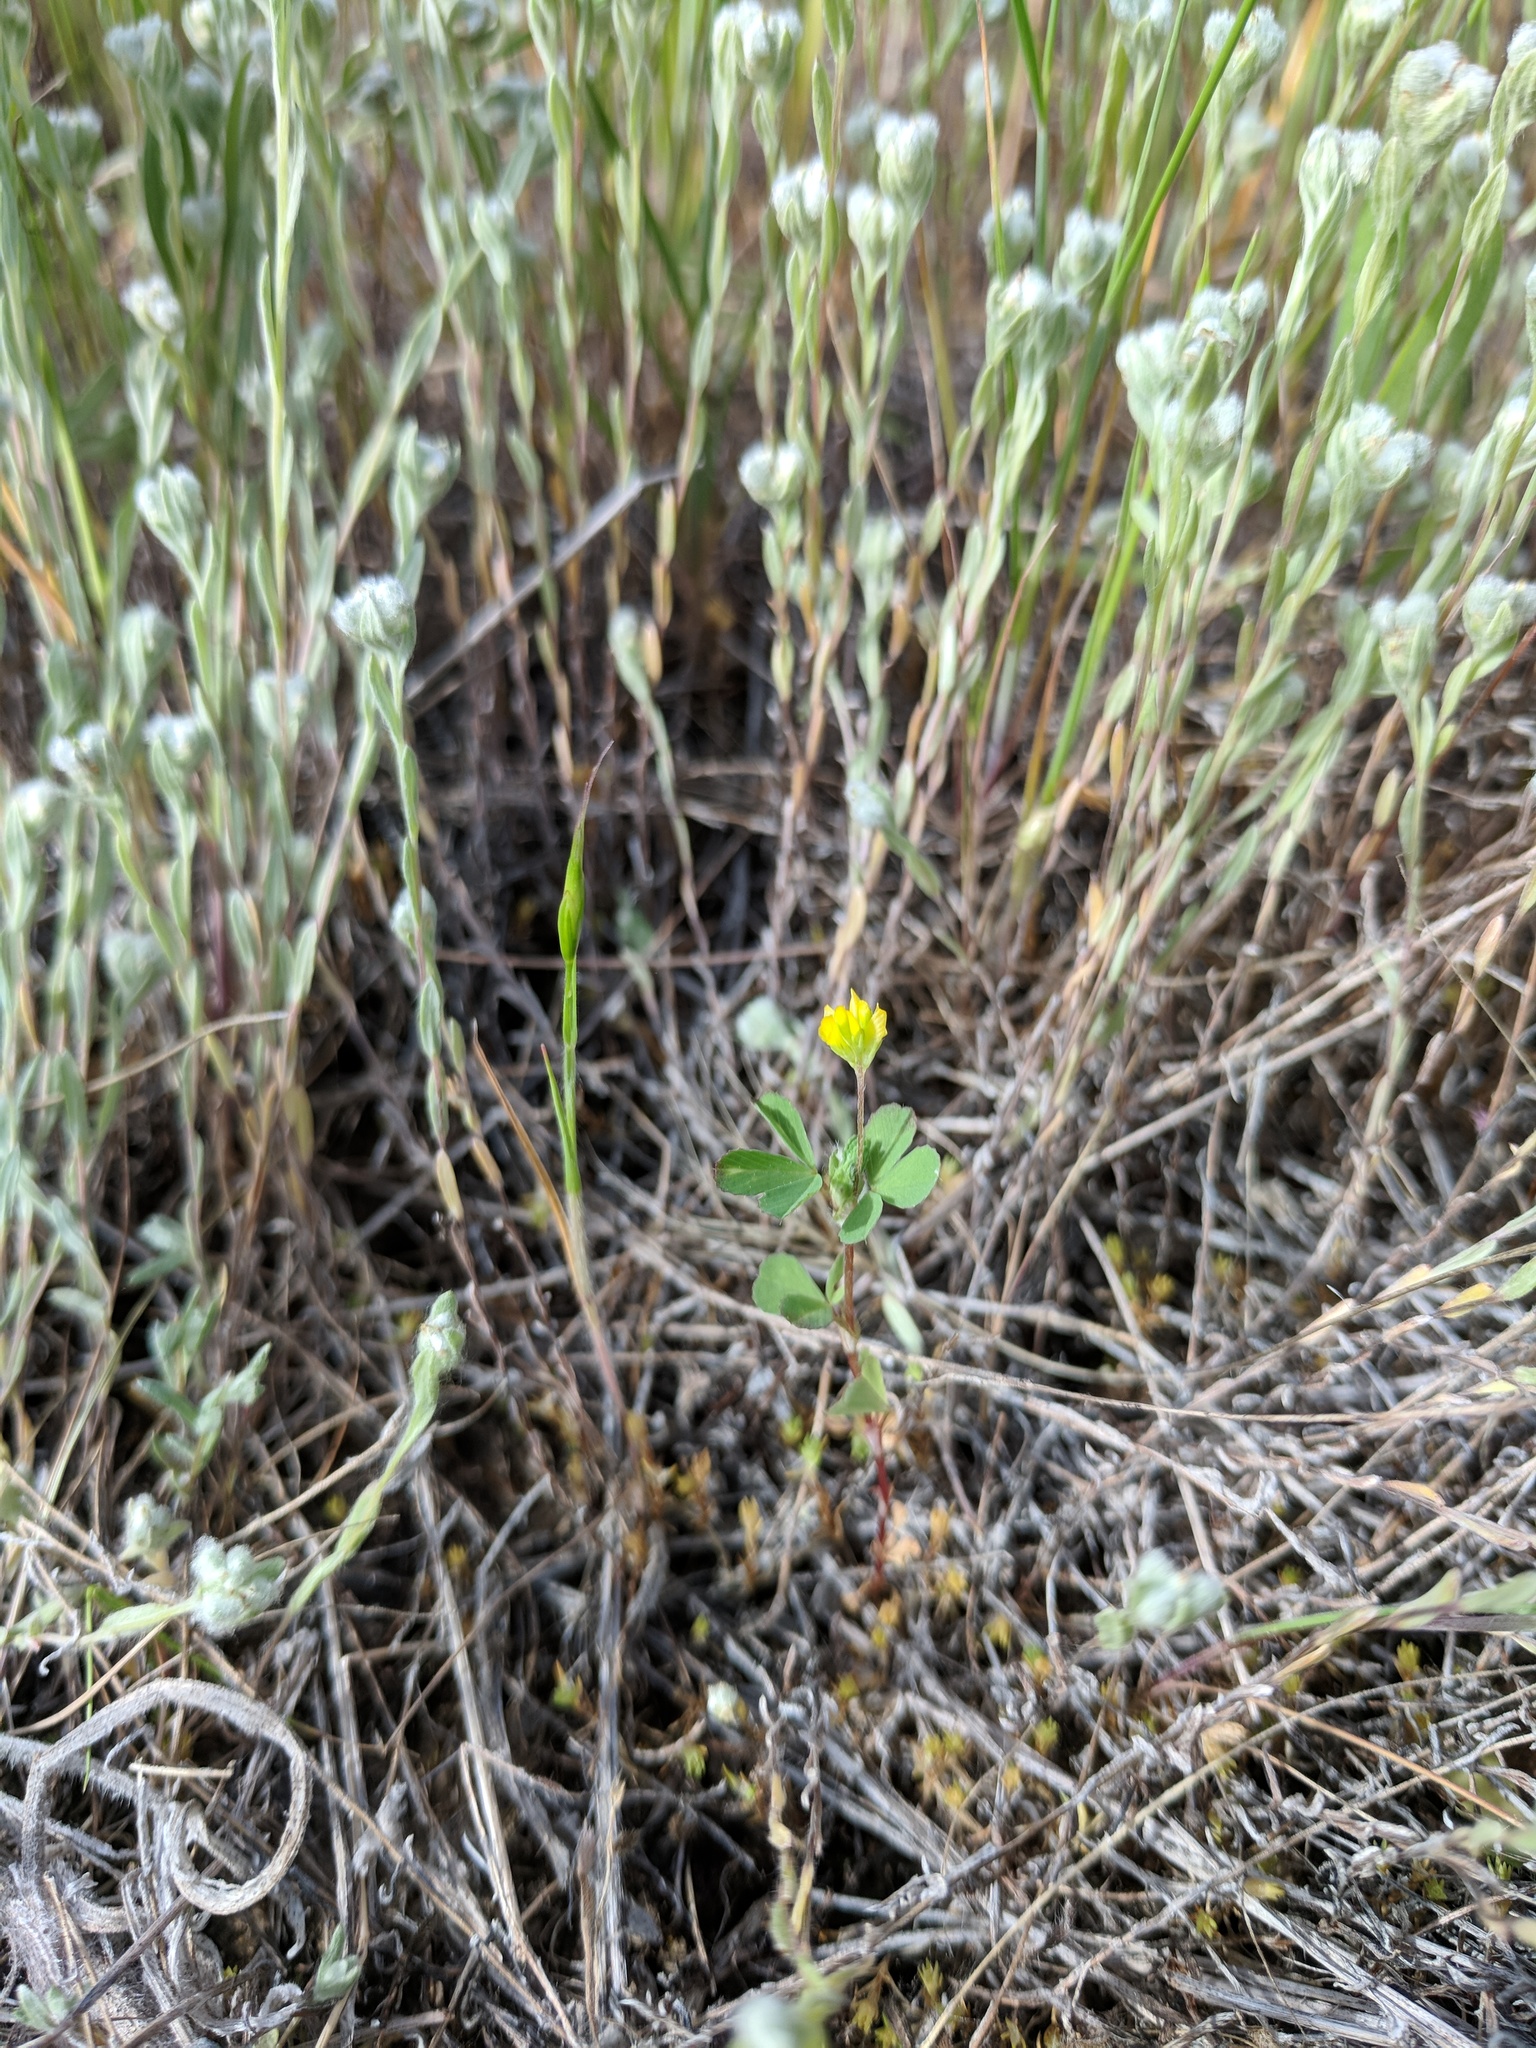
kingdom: Plantae
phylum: Tracheophyta
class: Magnoliopsida
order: Fabales
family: Fabaceae
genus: Trifolium
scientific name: Trifolium dubium
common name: Suckling clover
